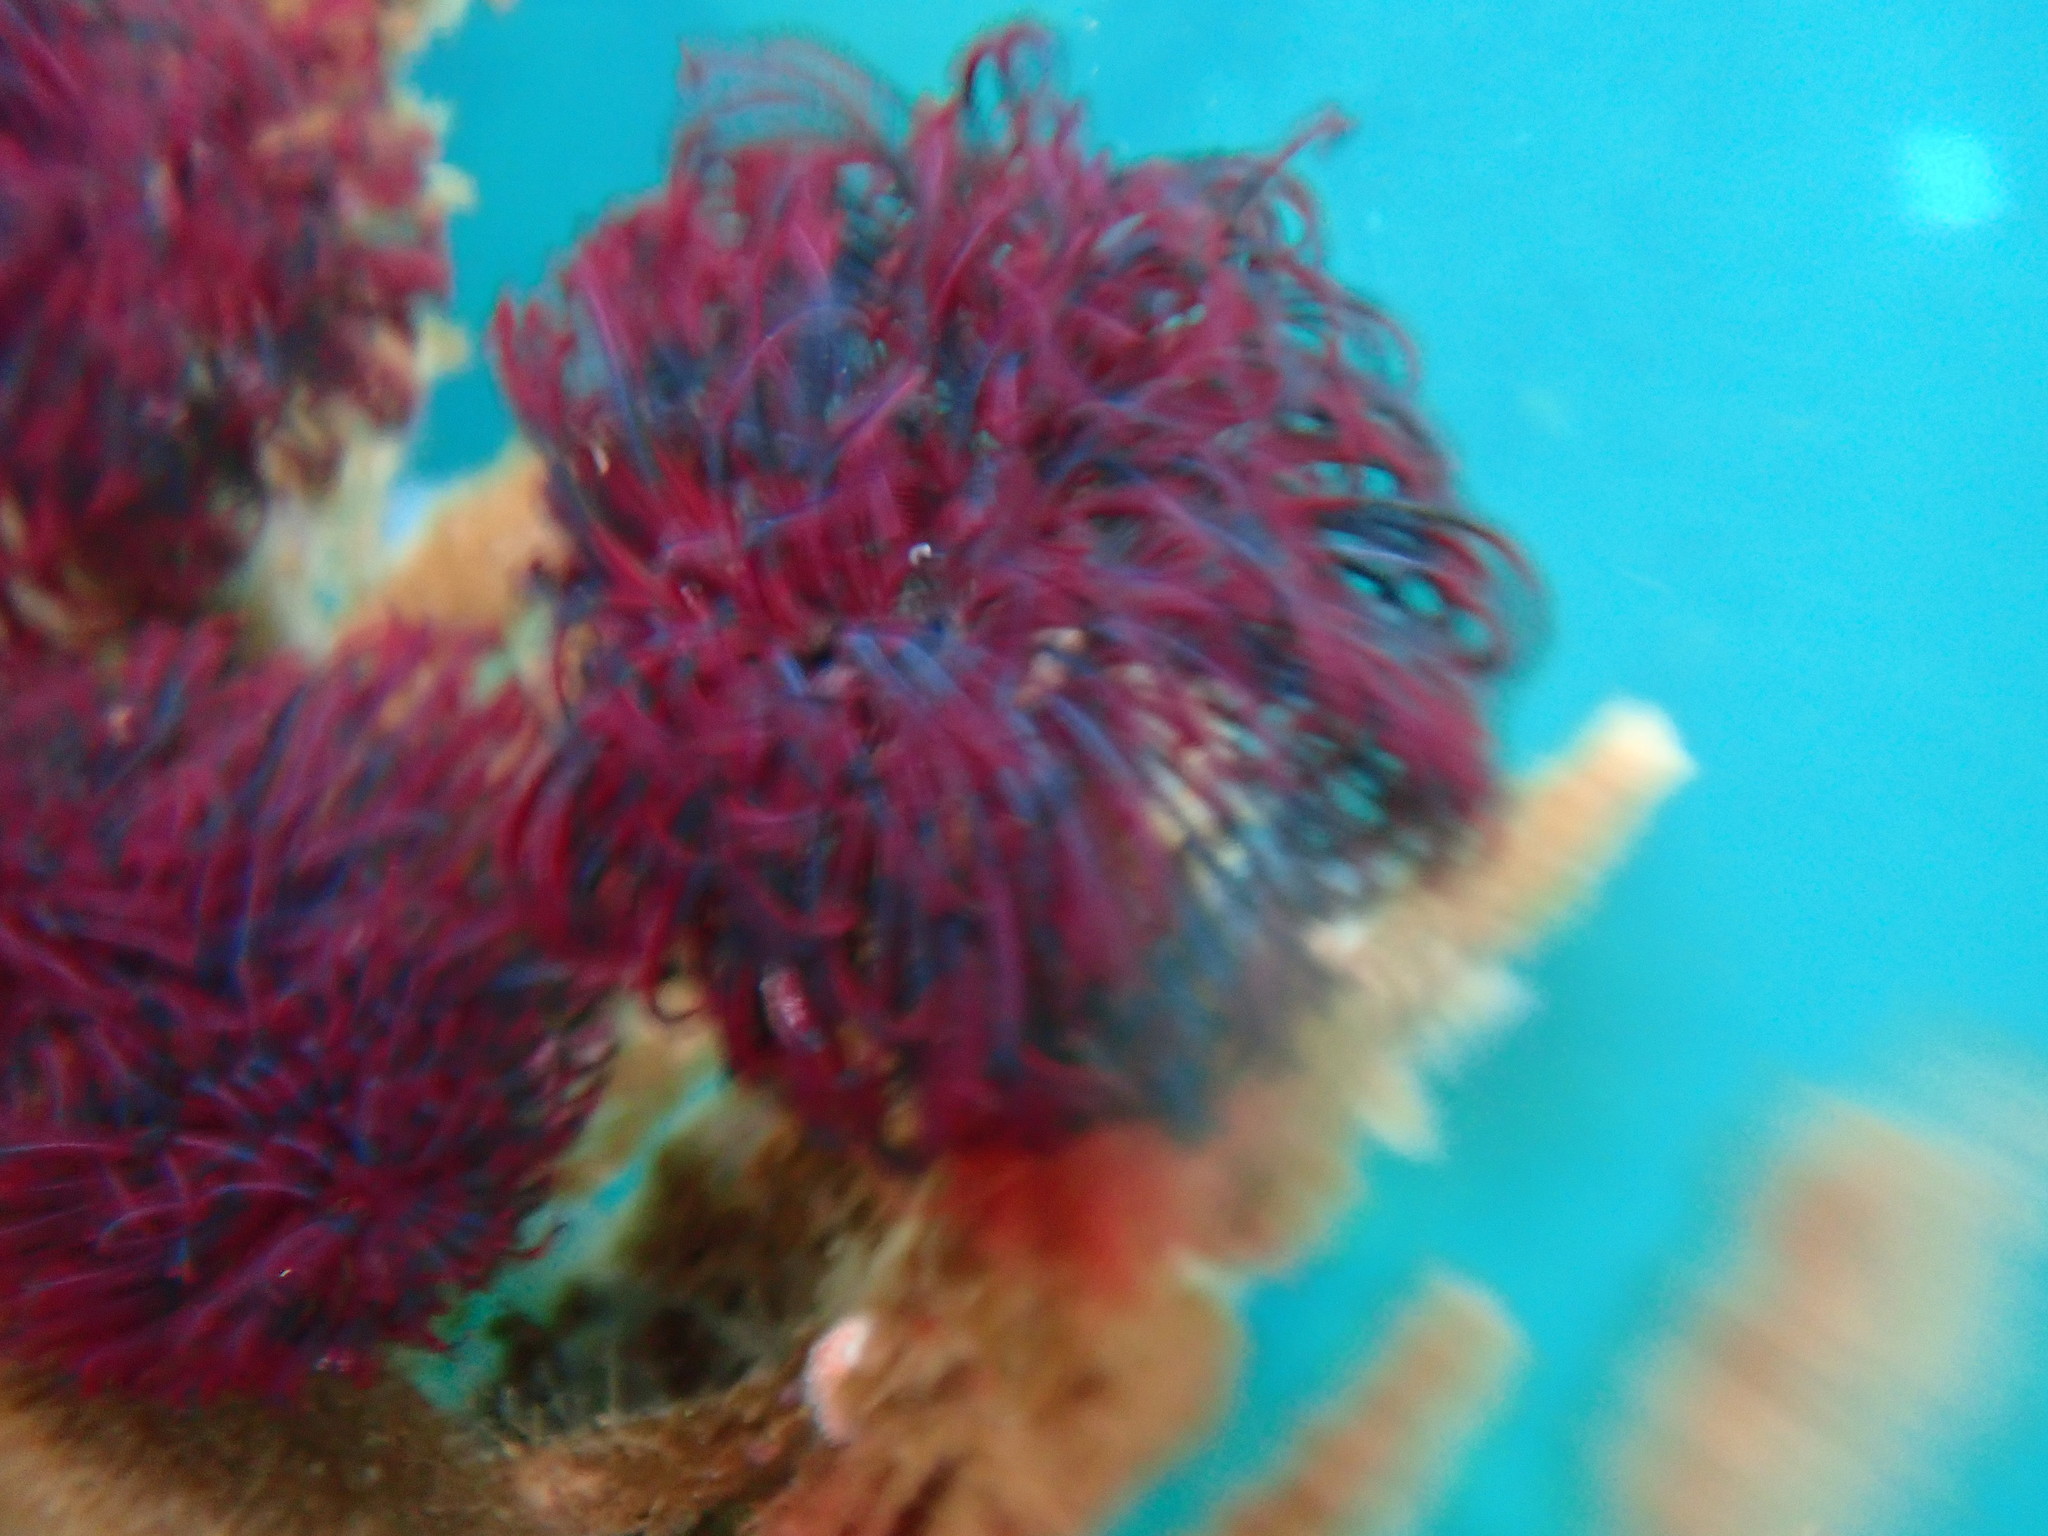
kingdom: Animalia
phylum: Annelida
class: Polychaeta
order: Sabellida
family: Sabellidae
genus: Eudistylia
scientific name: Eudistylia vancouveri
